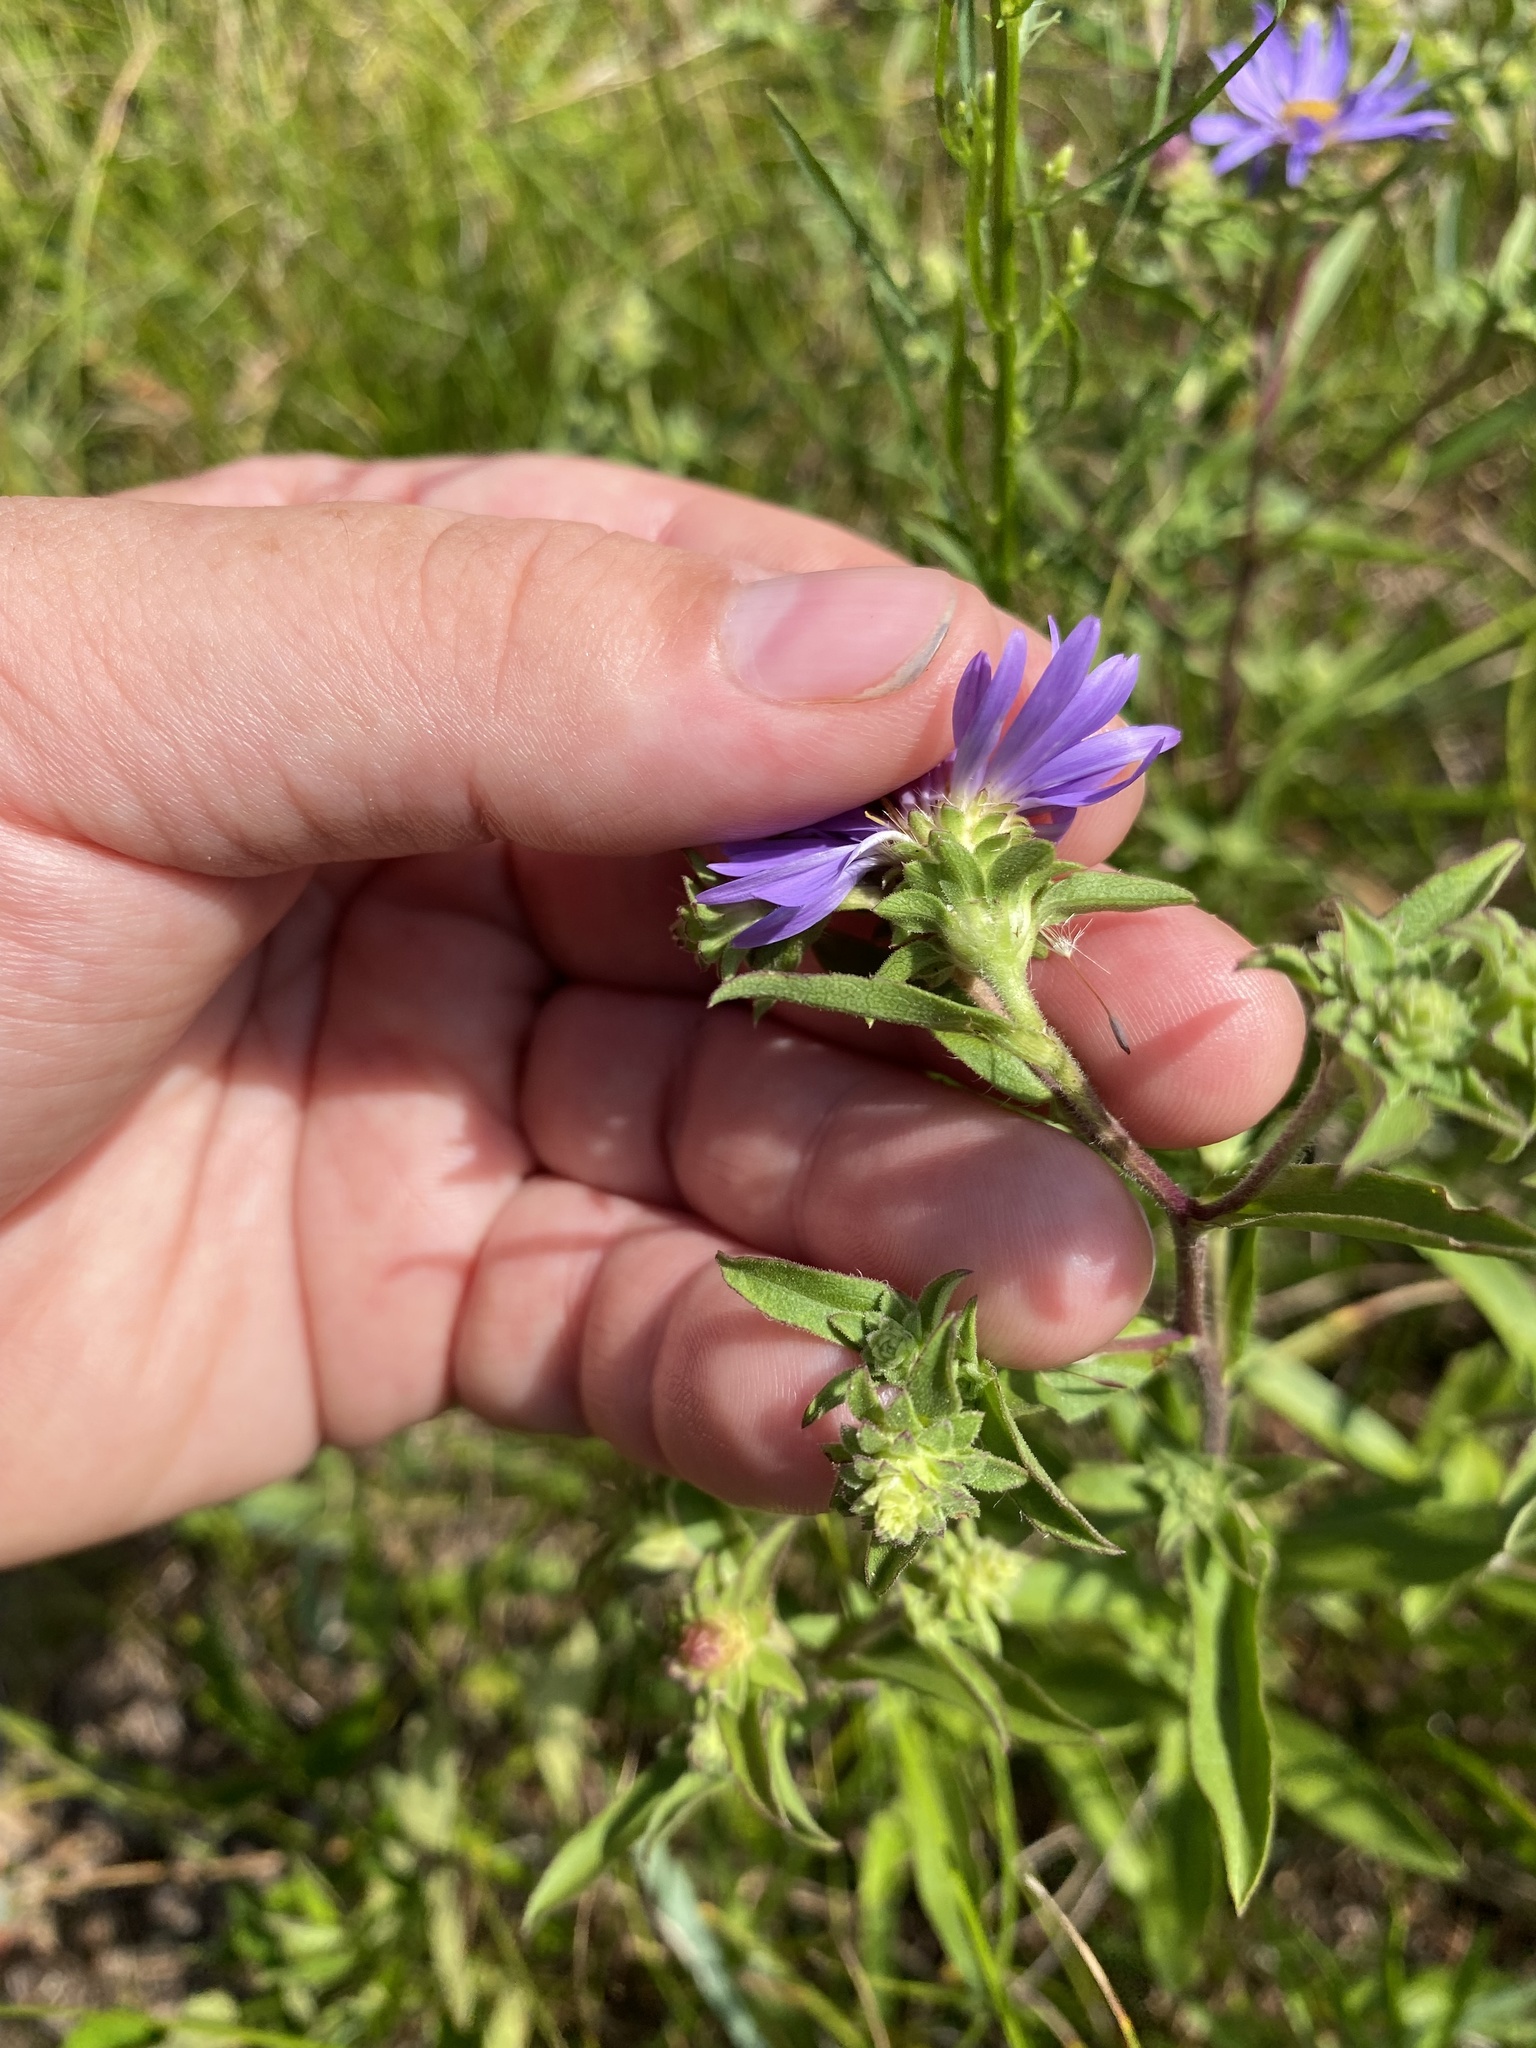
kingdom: Plantae
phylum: Tracheophyta
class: Magnoliopsida
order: Asterales
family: Asteraceae
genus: Eurybia
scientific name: Eurybia spectabilis
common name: Low showy aster
